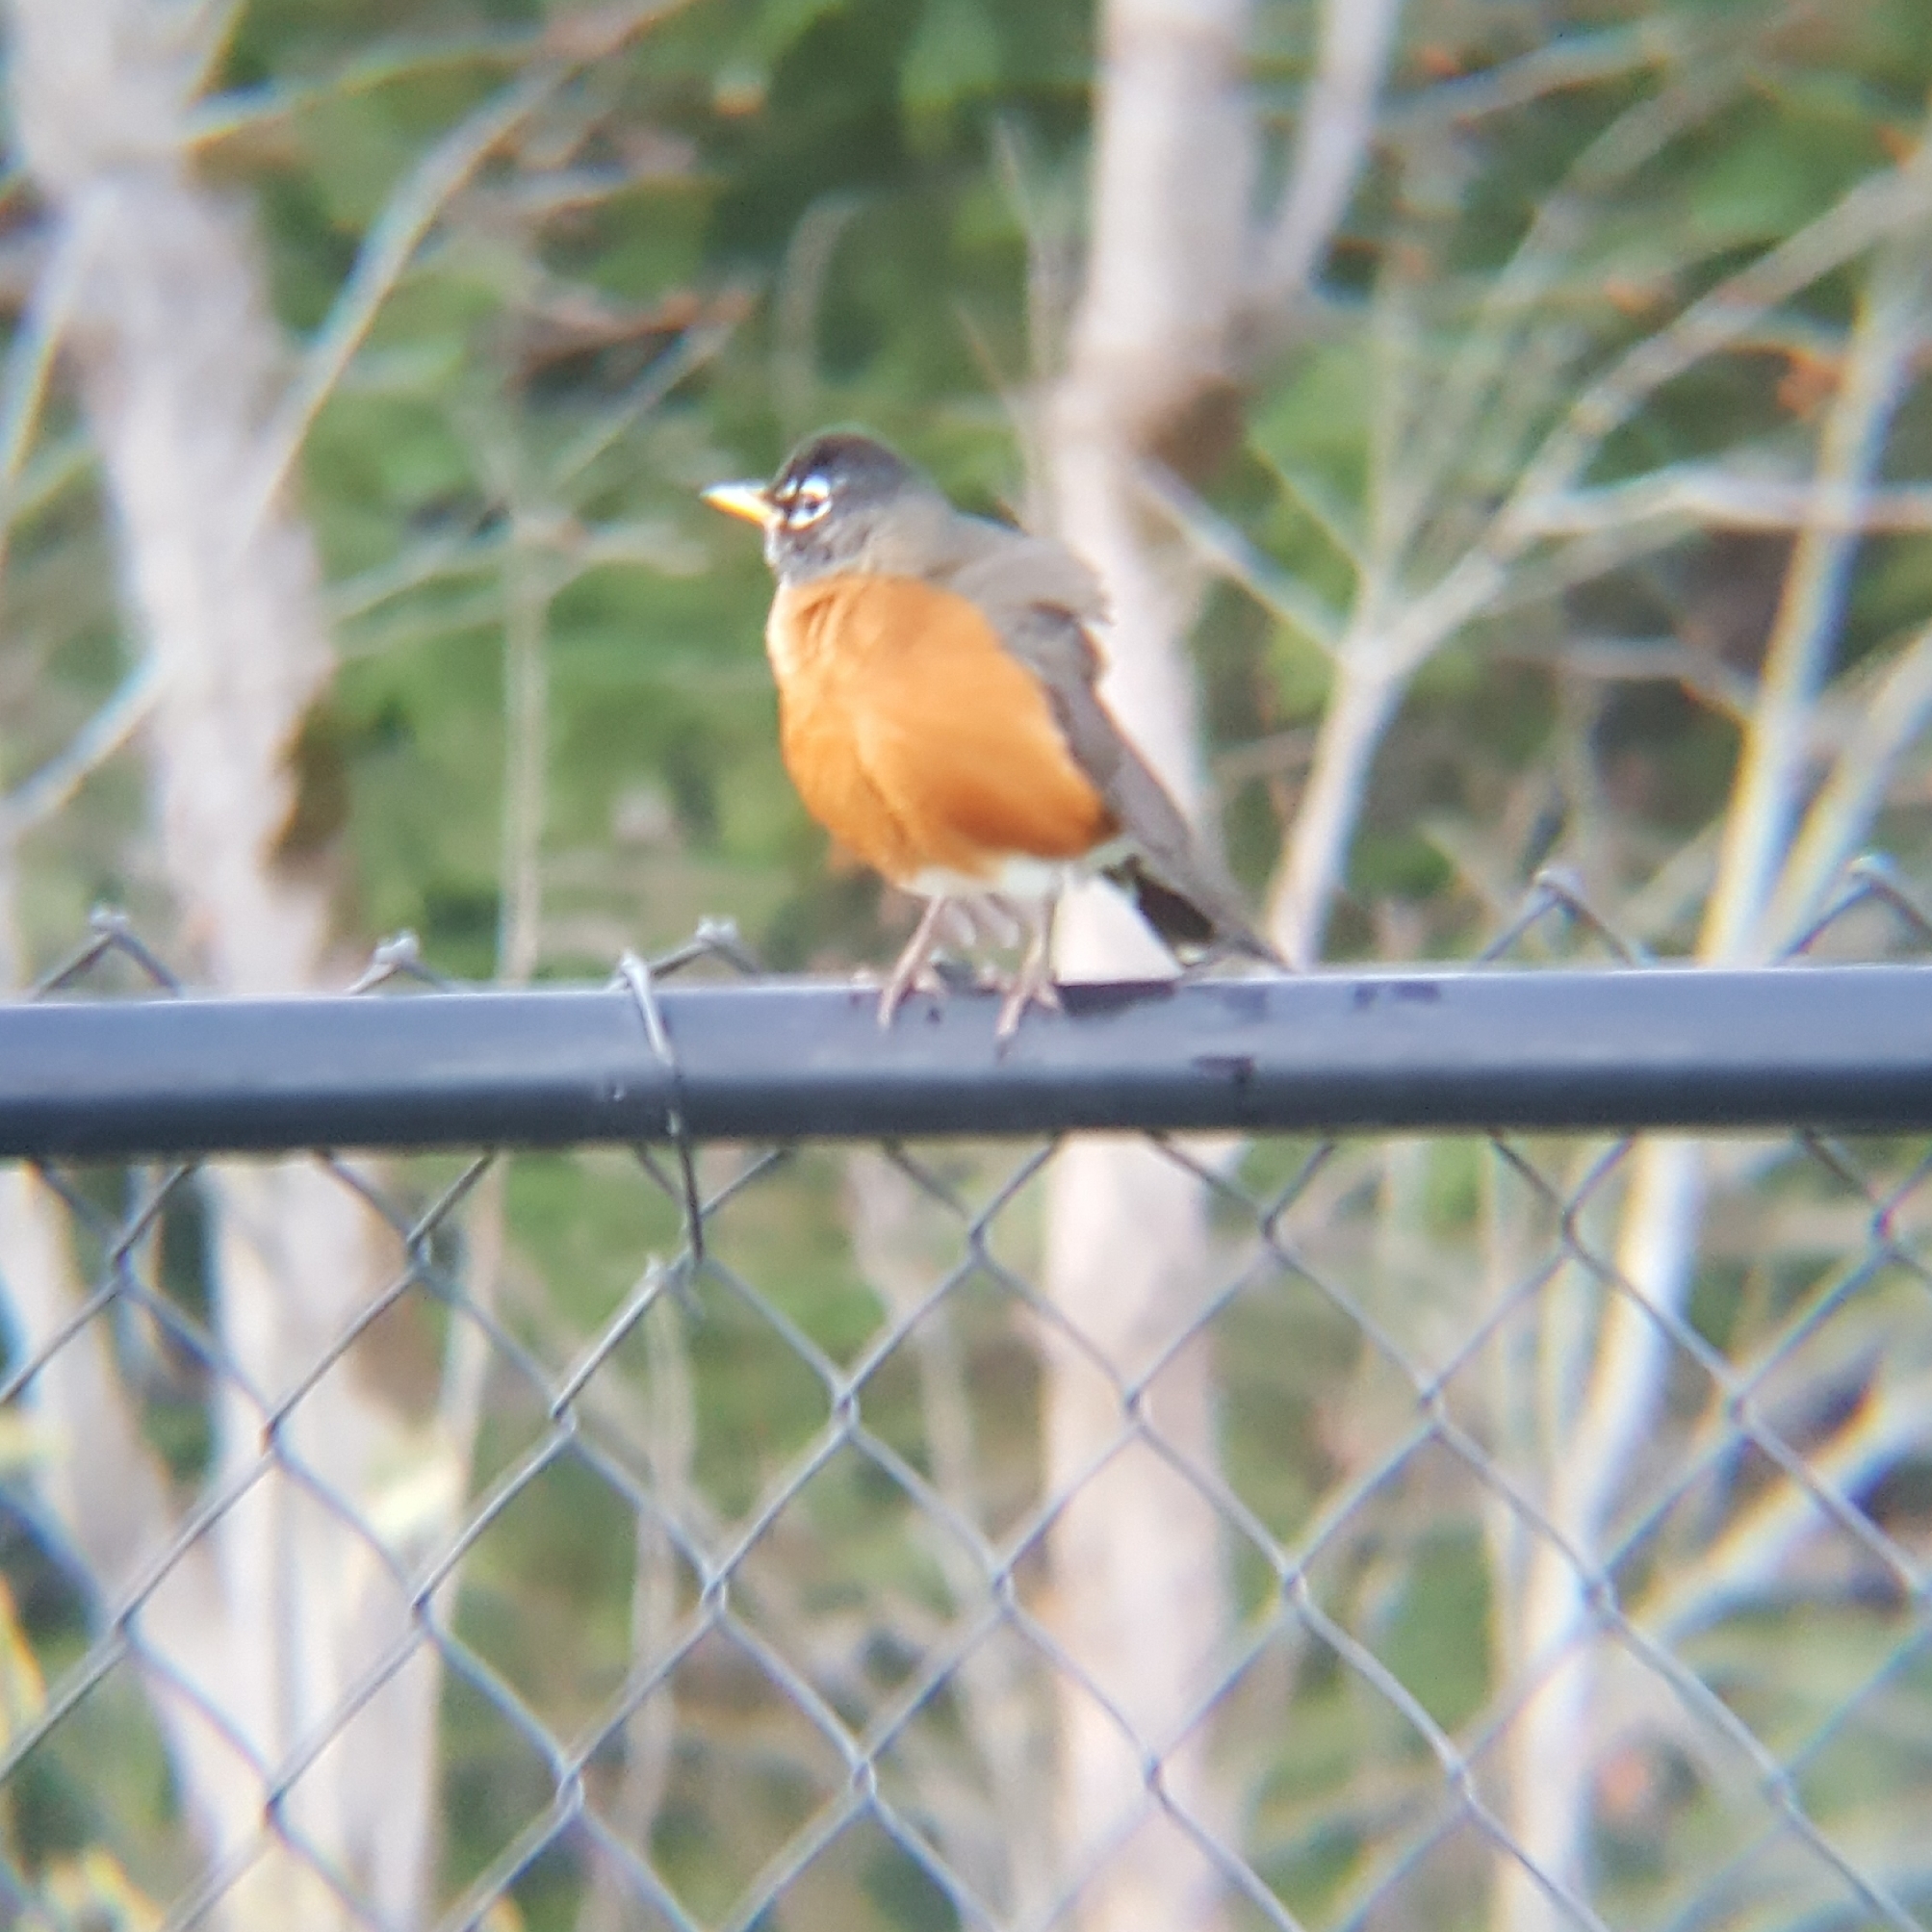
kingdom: Animalia
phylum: Chordata
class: Aves
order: Passeriformes
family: Turdidae
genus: Turdus
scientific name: Turdus migratorius
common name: American robin
